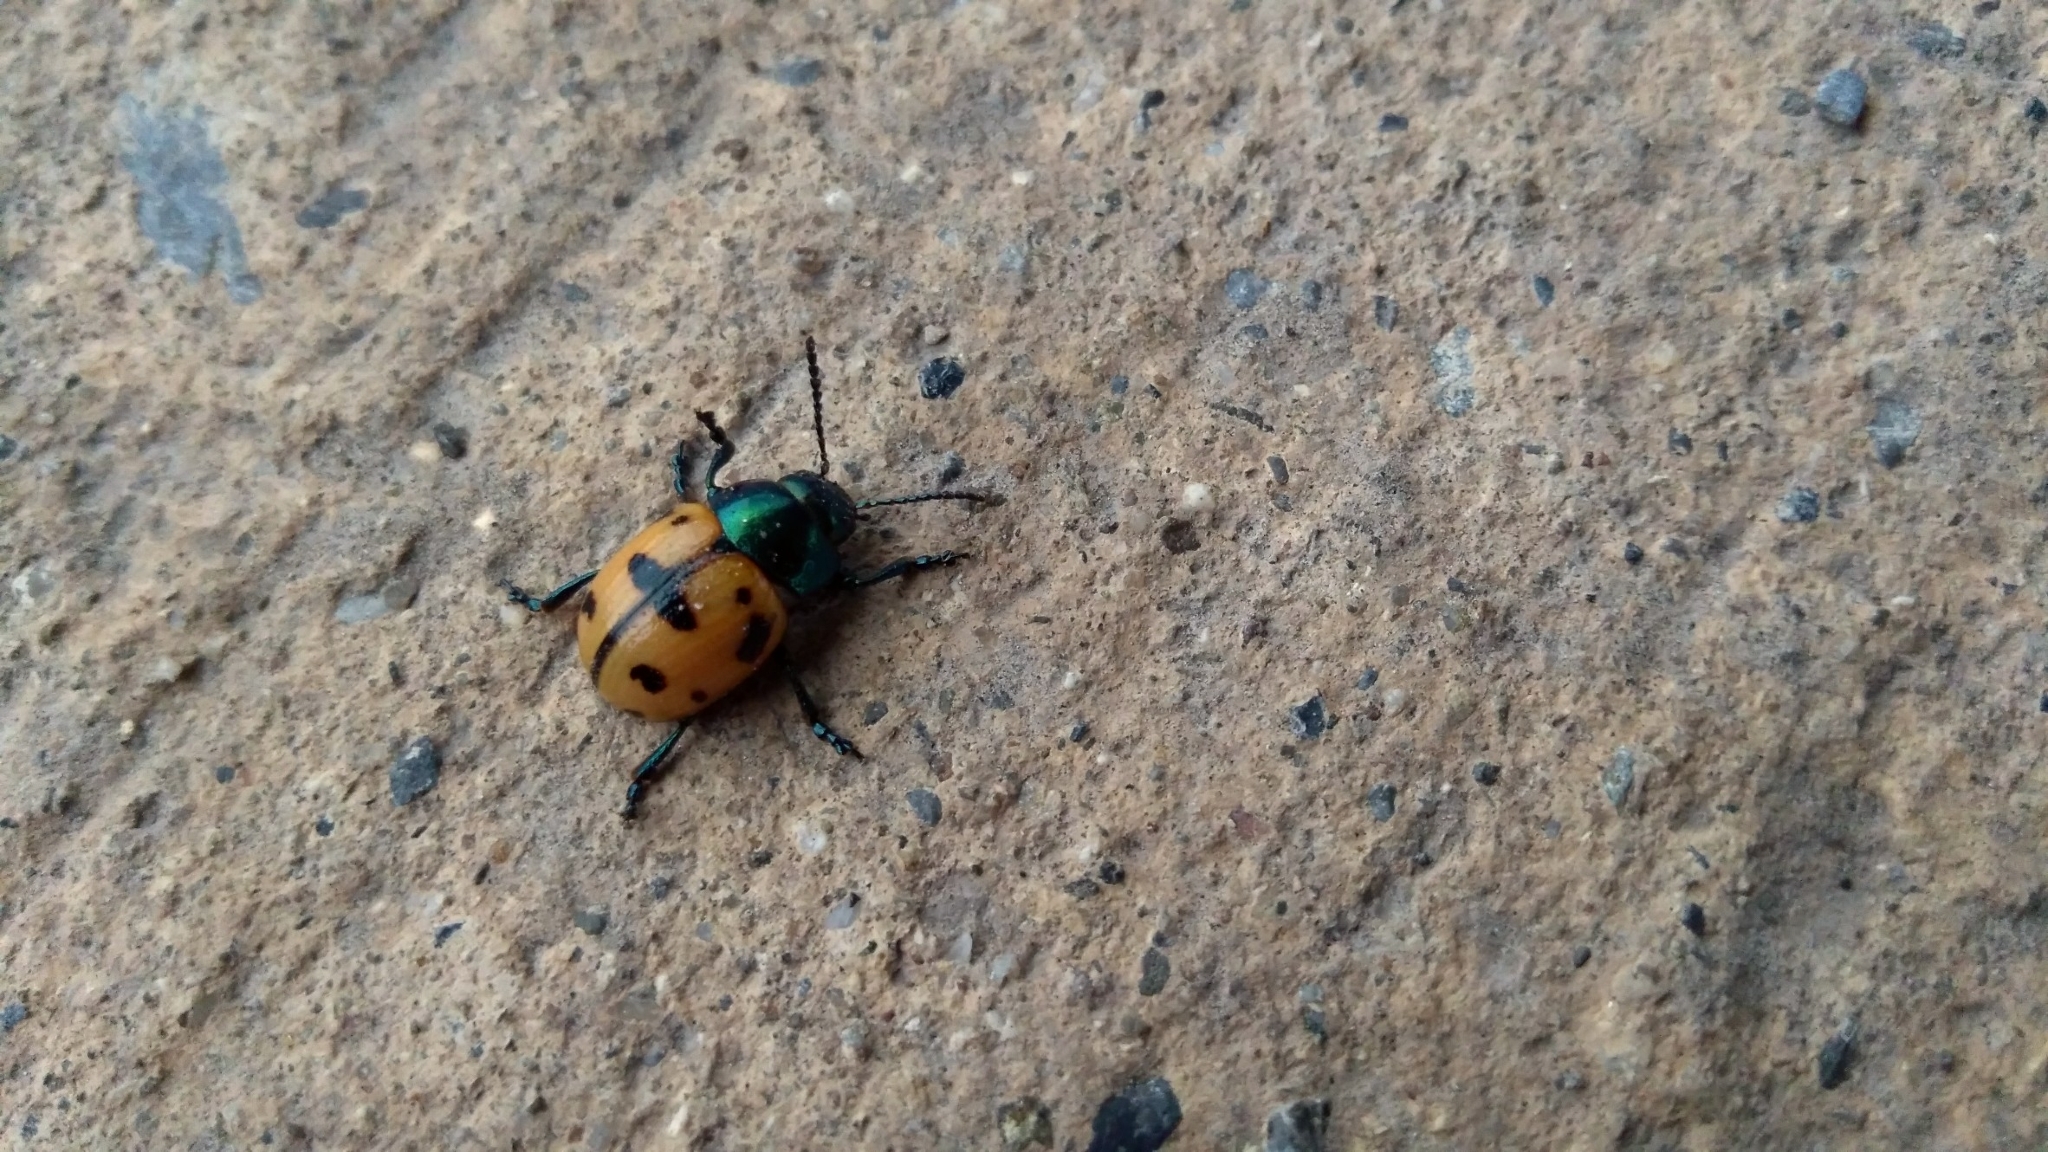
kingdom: Animalia
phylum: Arthropoda
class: Insecta
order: Coleoptera
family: Chrysomelidae
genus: Labidomera
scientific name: Labidomera clivicollis
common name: Swamp milkweed leaf beetle
